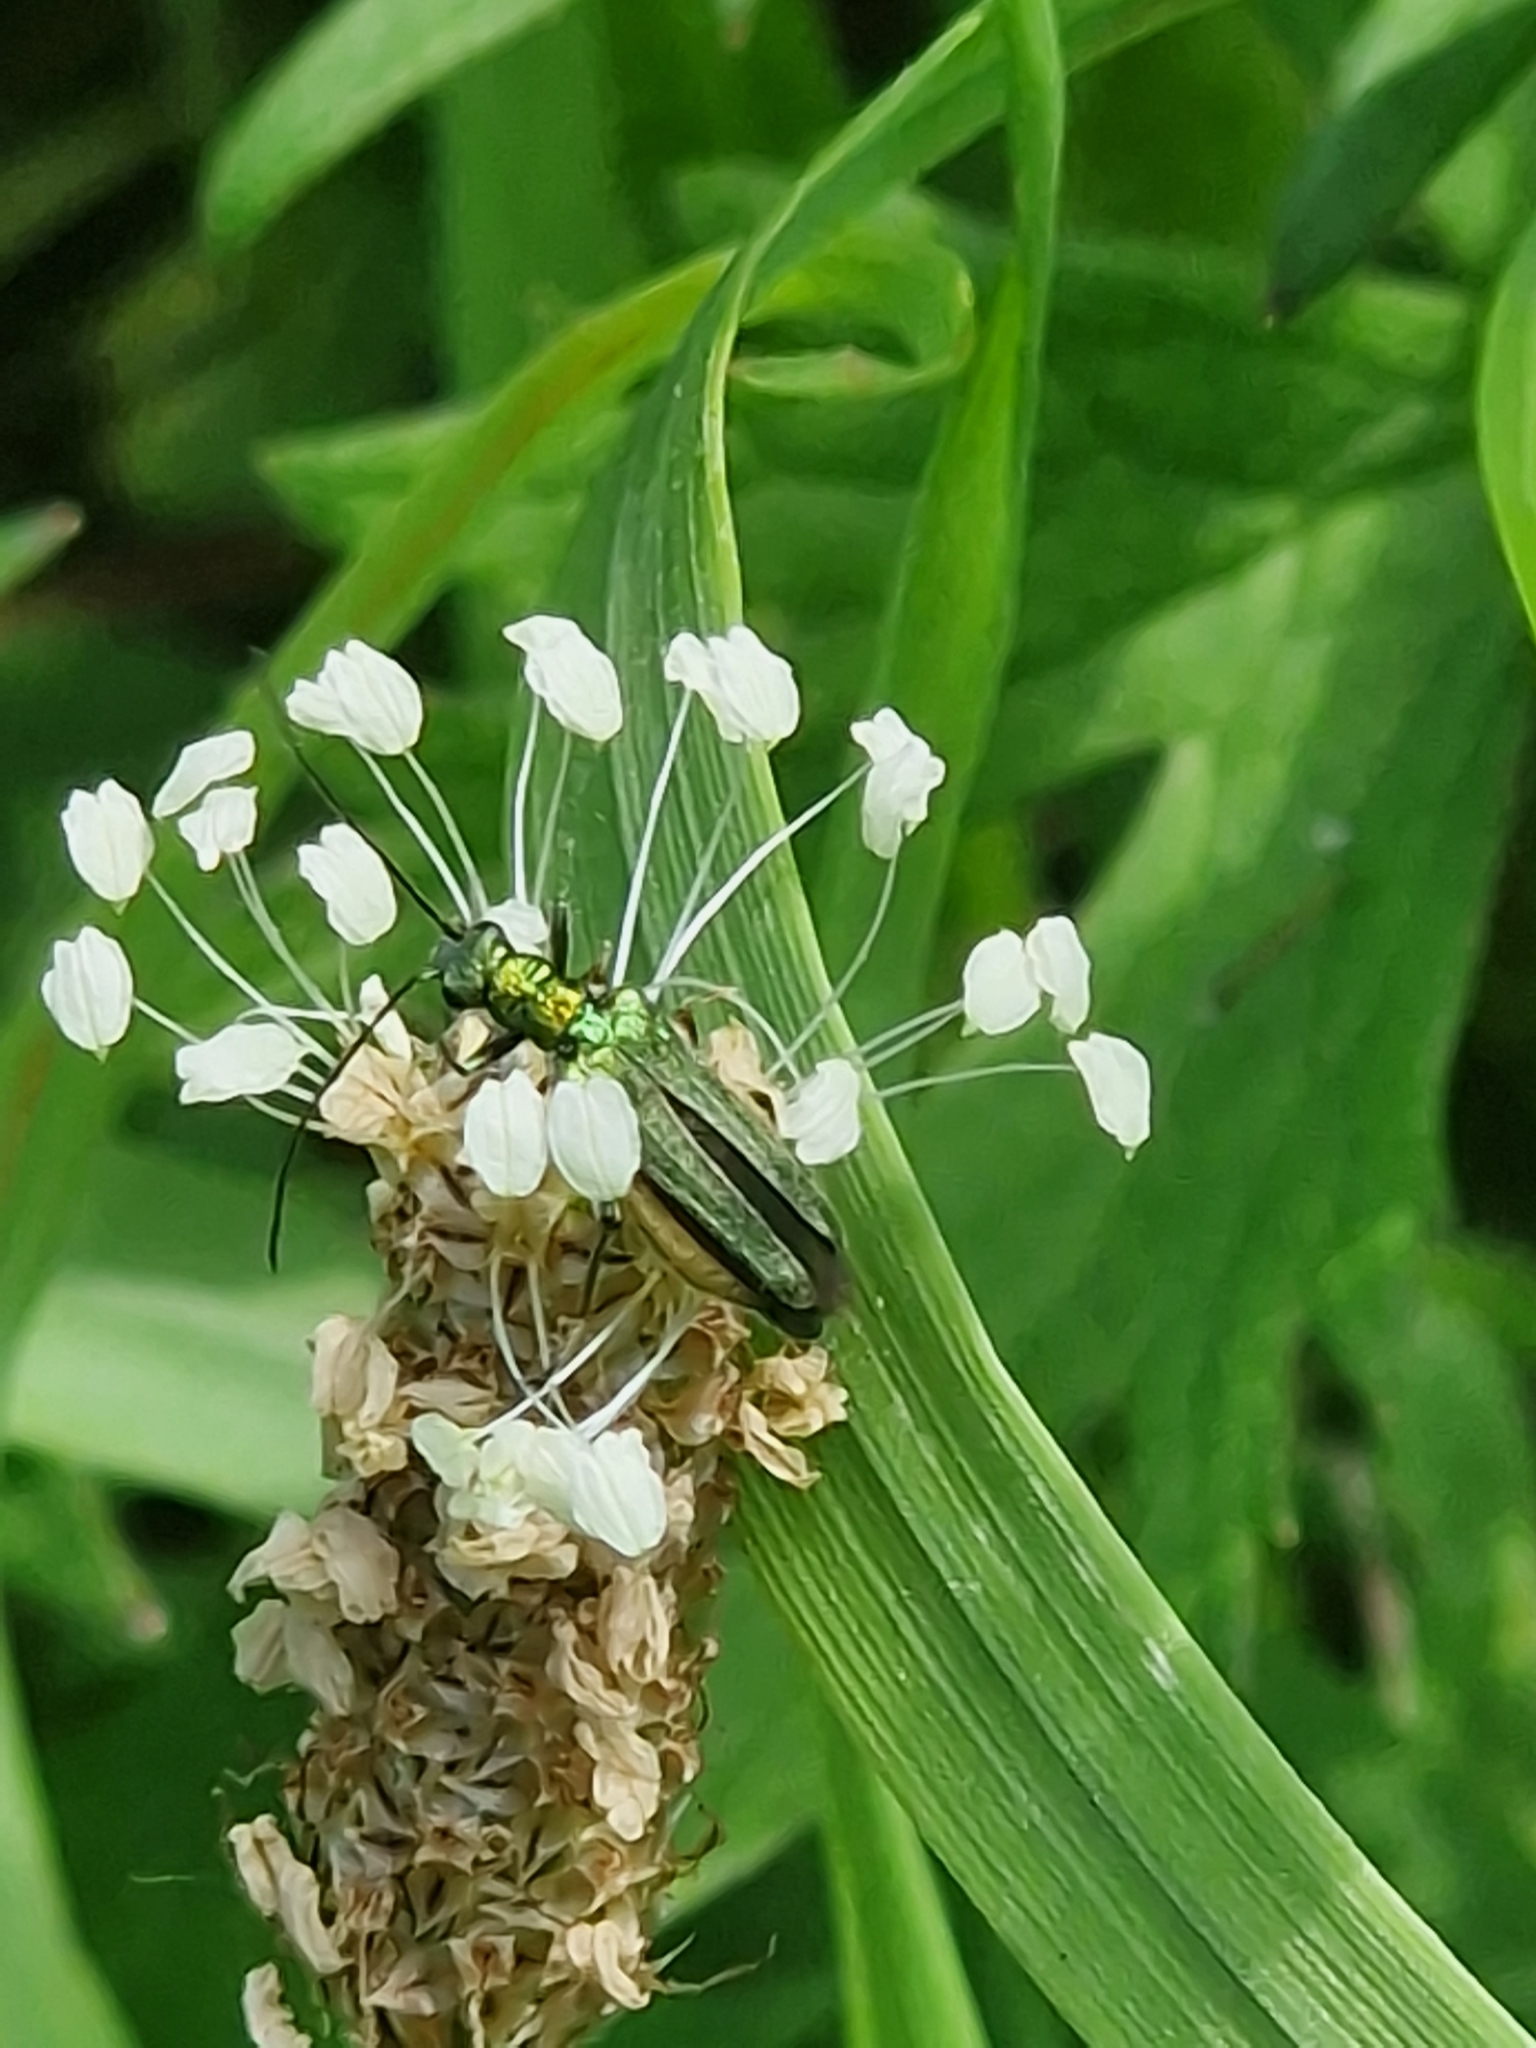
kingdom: Animalia
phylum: Arthropoda
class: Insecta
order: Coleoptera
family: Oedemeridae
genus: Oedemera
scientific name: Oedemera nobilis
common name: Swollen-thighed beetle
